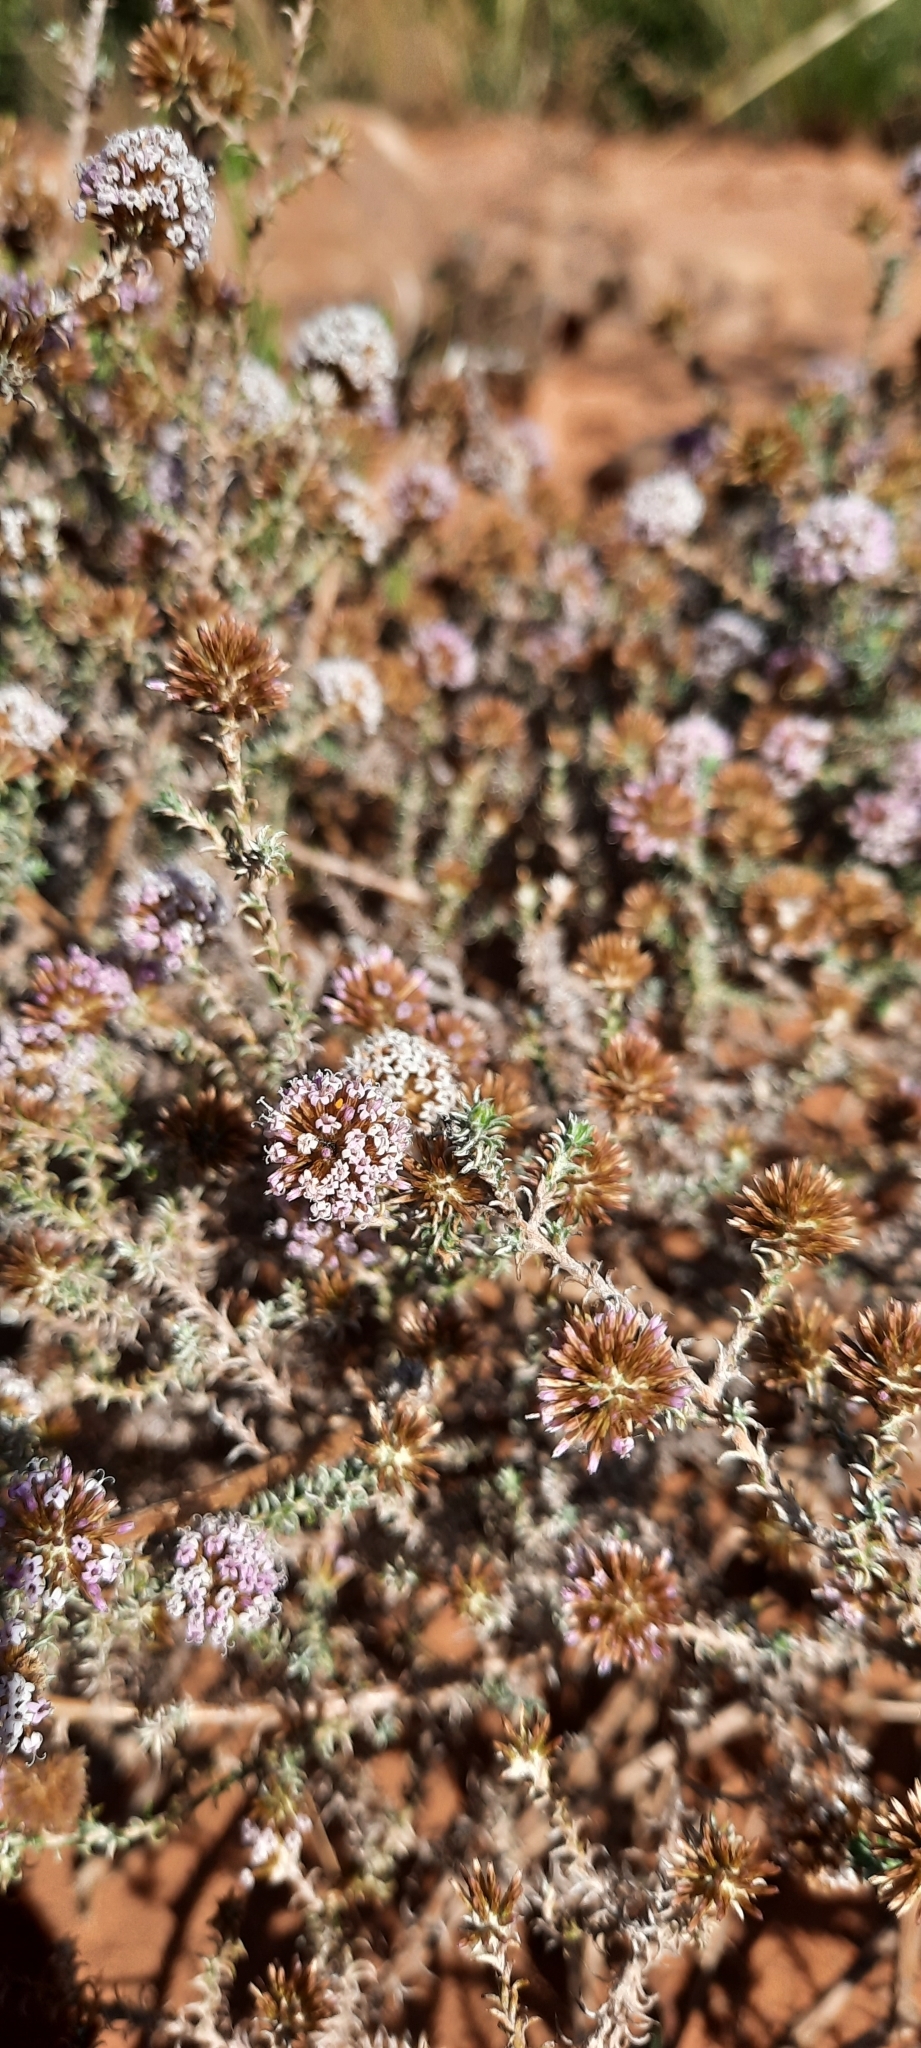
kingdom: Plantae
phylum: Tracheophyta
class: Magnoliopsida
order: Asterales
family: Asteraceae
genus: Stoebe
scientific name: Stoebe capitata
